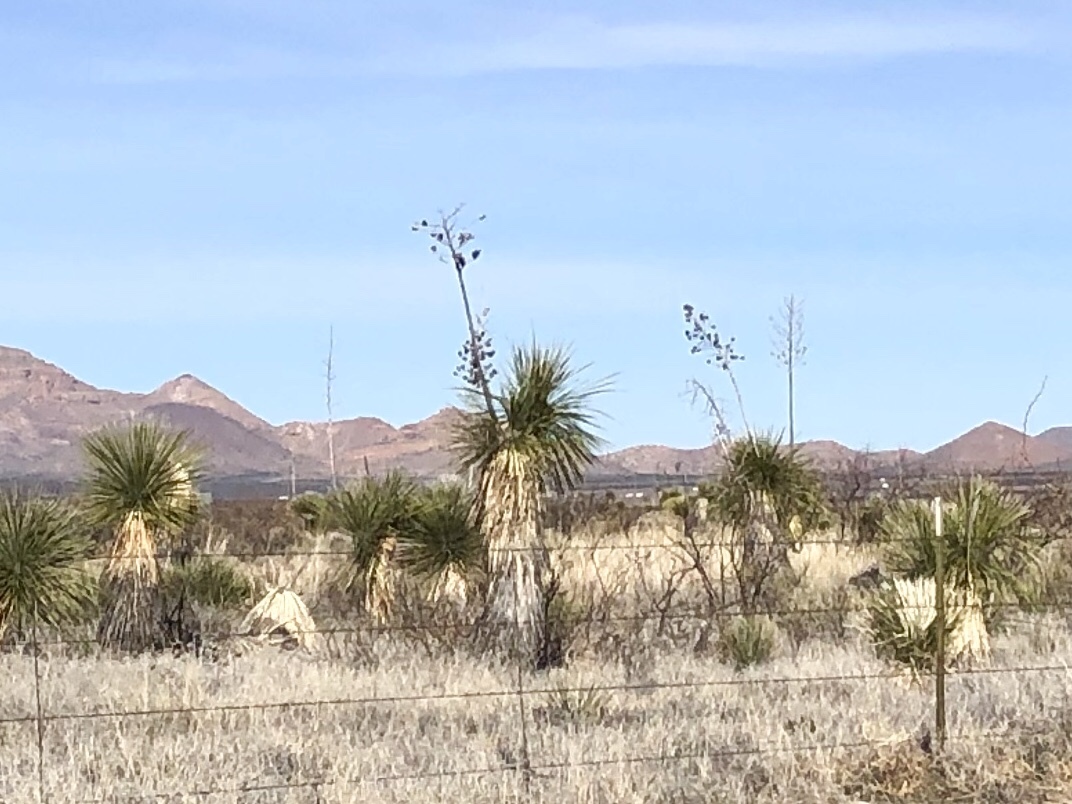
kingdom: Plantae
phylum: Tracheophyta
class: Liliopsida
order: Asparagales
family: Asparagaceae
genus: Yucca
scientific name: Yucca elata
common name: Palmella
